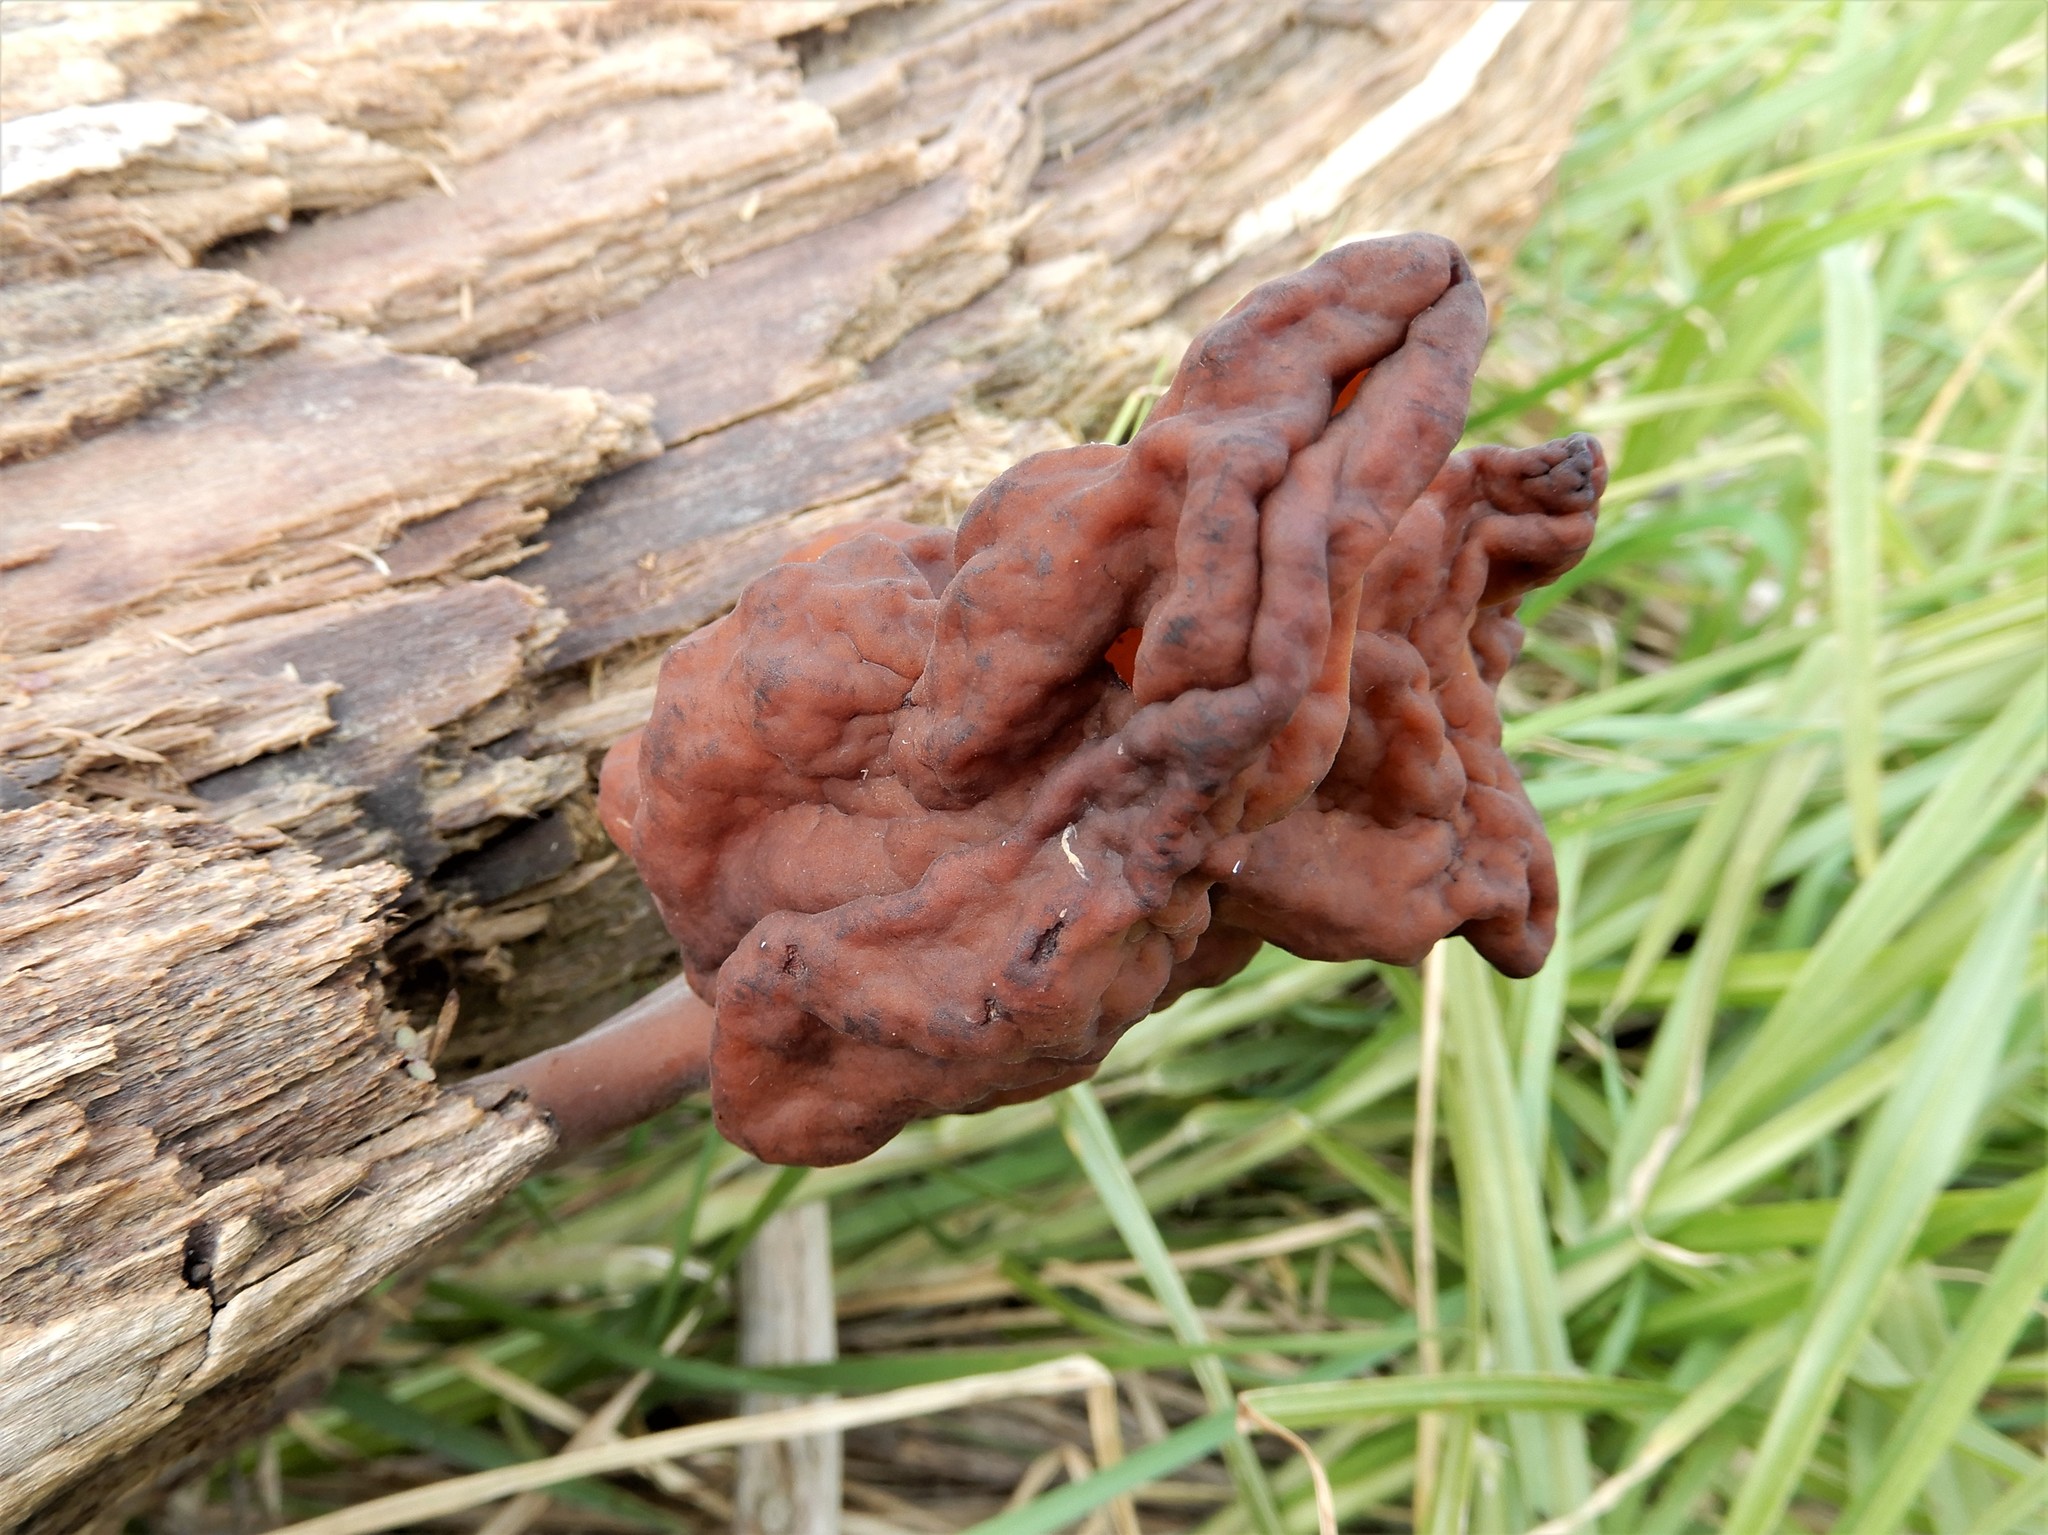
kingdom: Fungi
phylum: Ascomycota
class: Pezizomycetes
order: Pezizales
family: Discinaceae
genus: Gyromitra
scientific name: Gyromitra infula
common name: Pouched false morel
